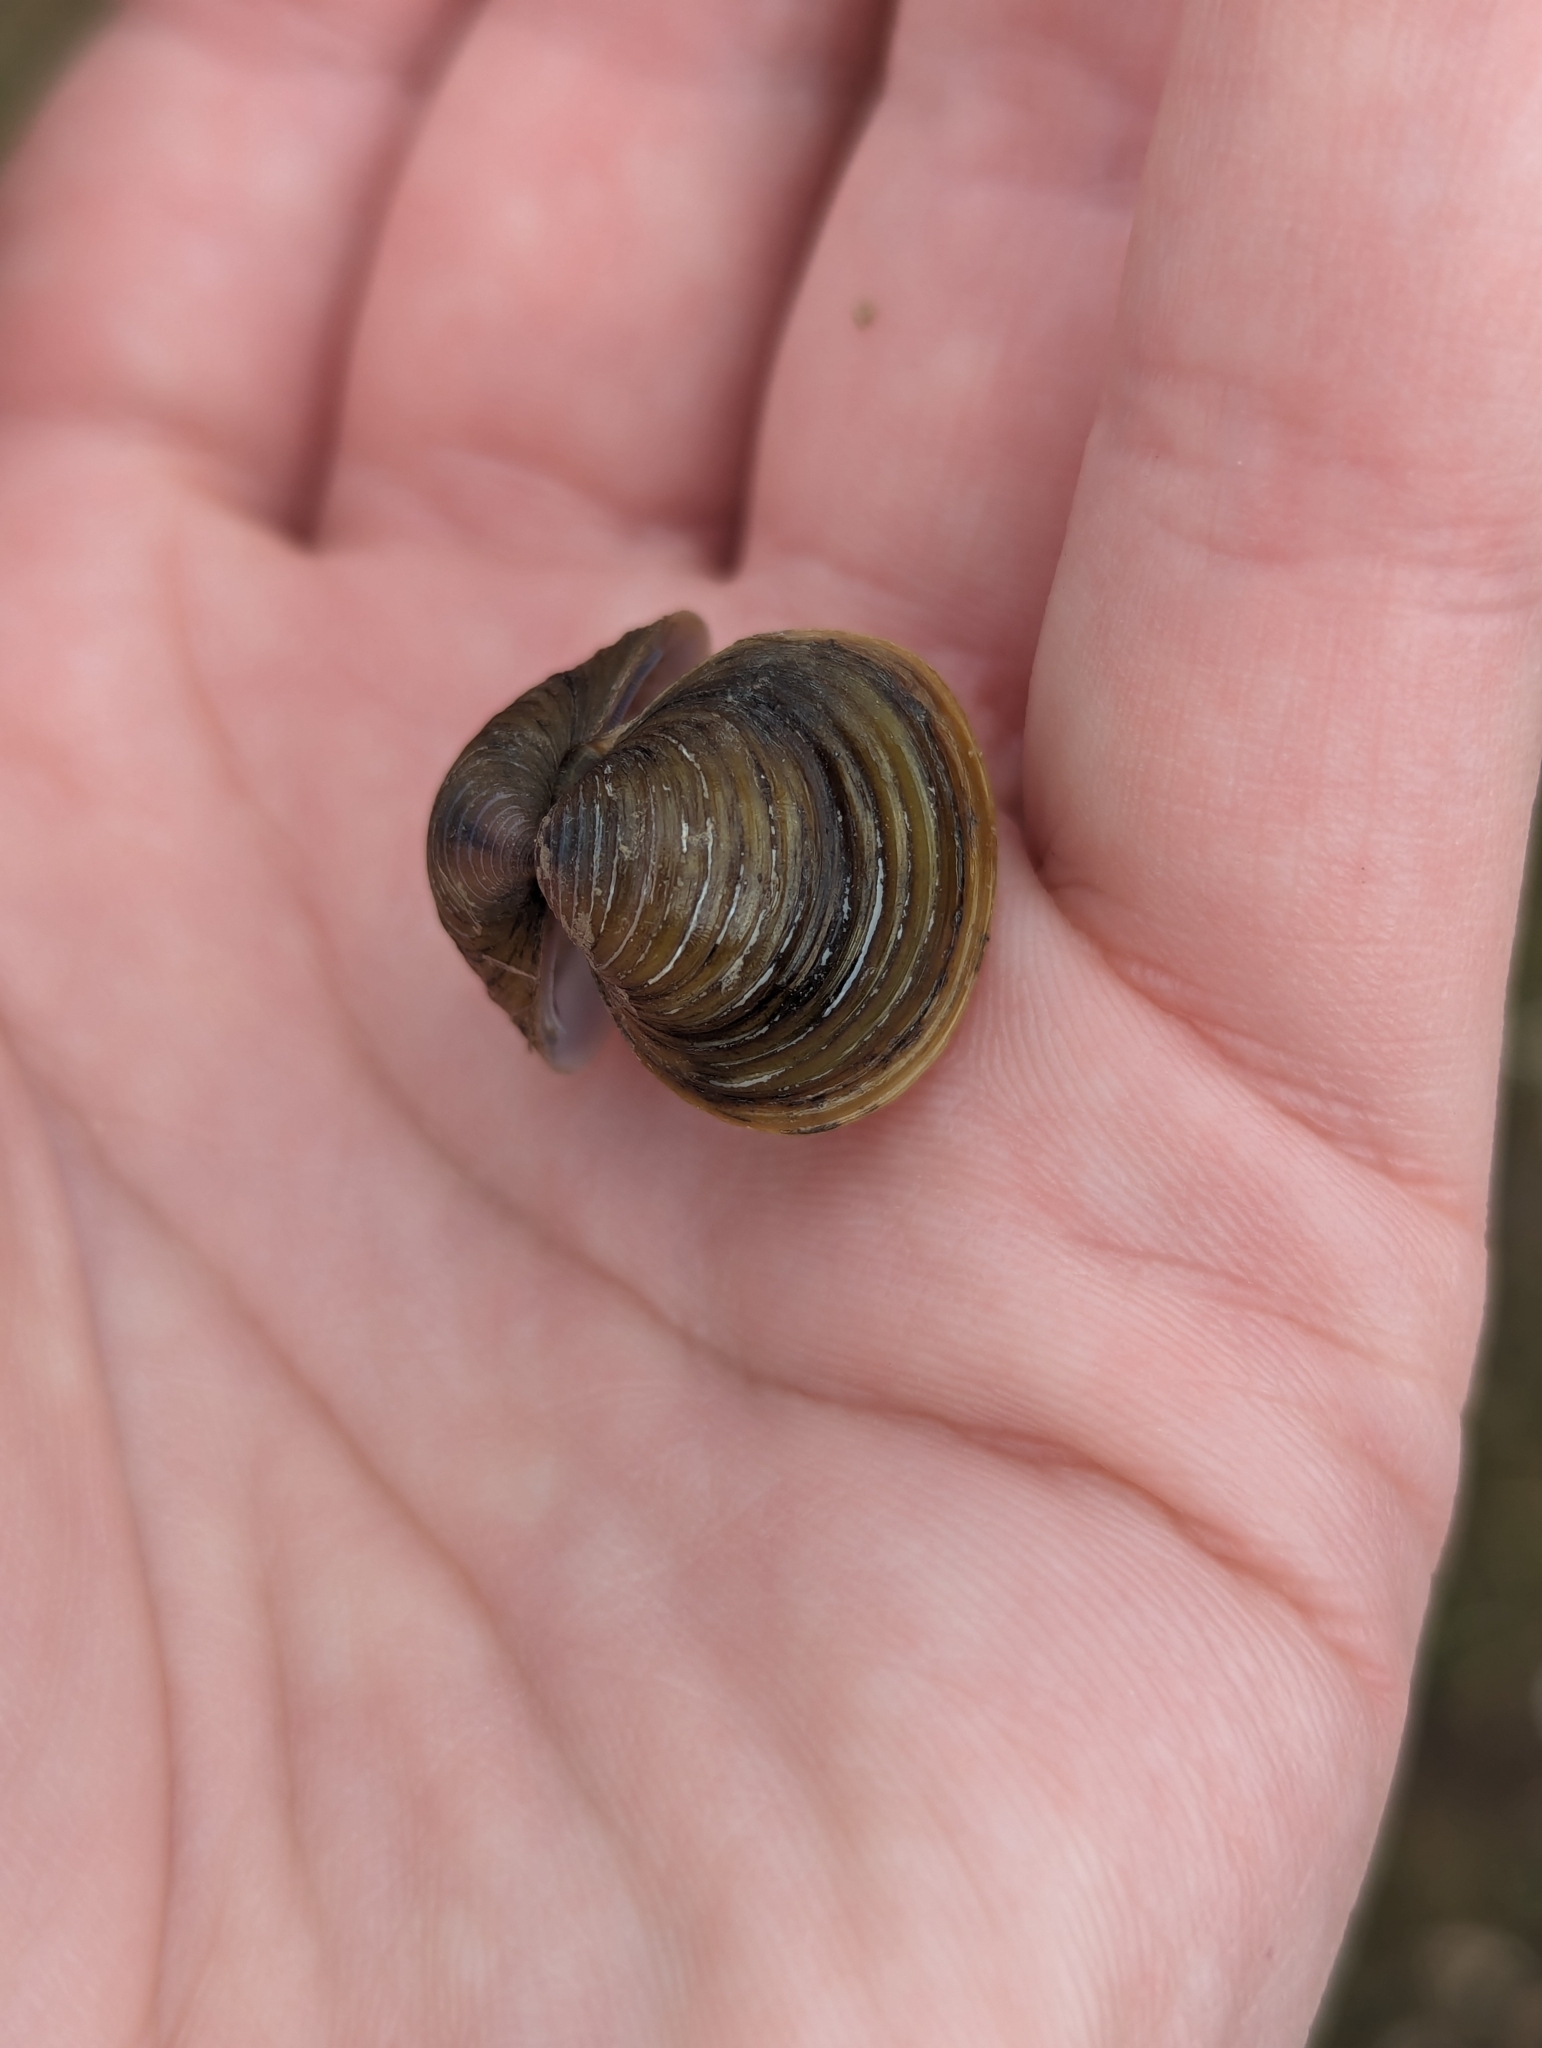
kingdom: Animalia
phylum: Mollusca
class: Bivalvia
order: Venerida
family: Cyrenidae
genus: Corbicula
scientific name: Corbicula fluminea
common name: Asian clam
